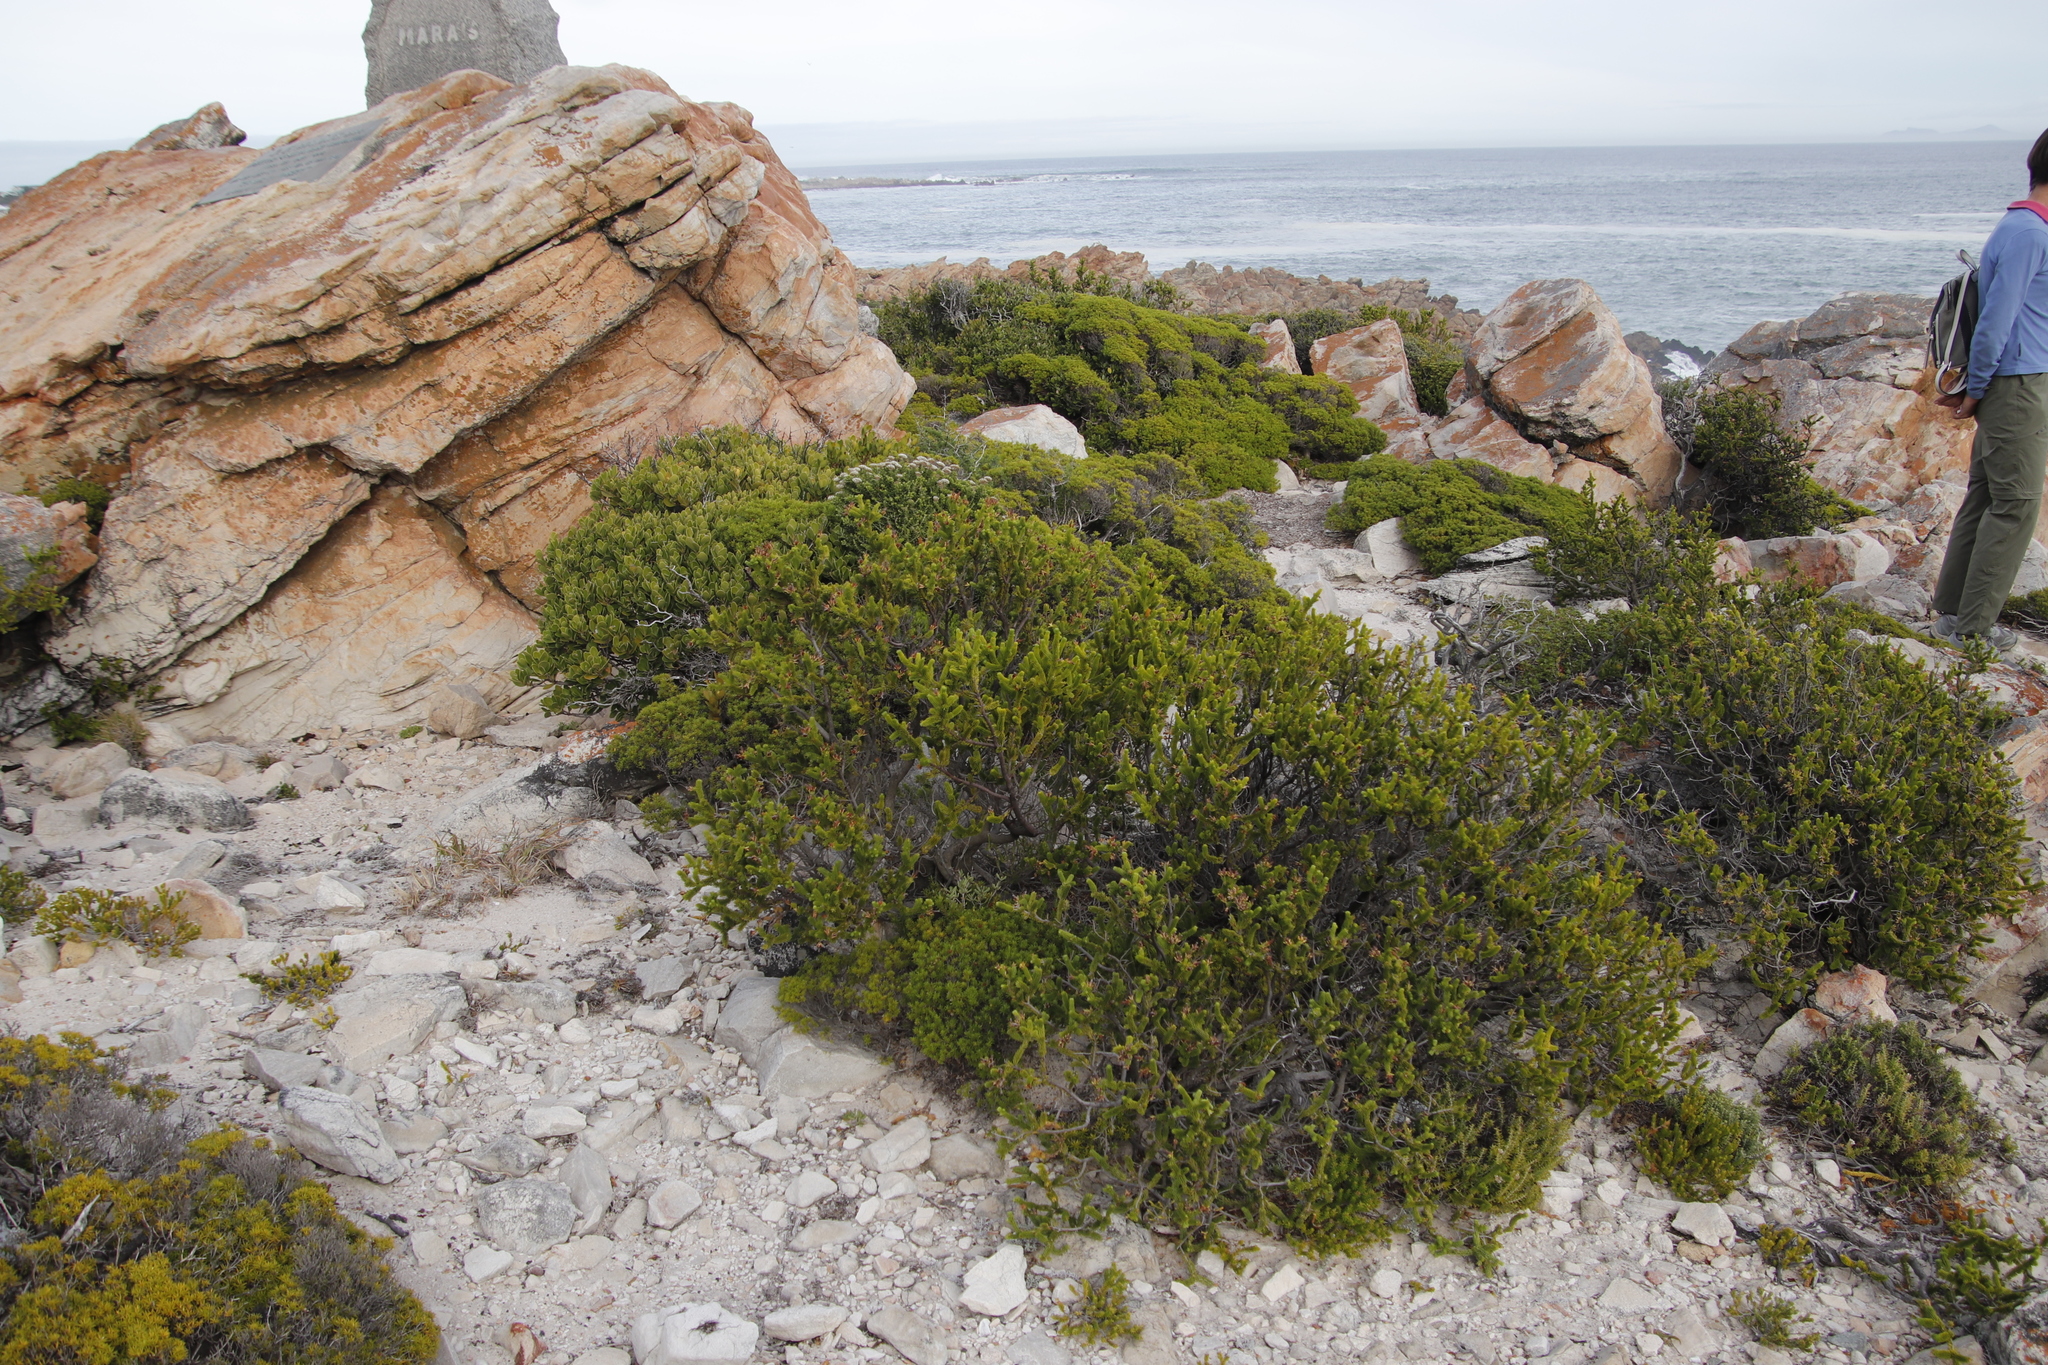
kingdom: Plantae
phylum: Tracheophyta
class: Magnoliopsida
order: Ericales
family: Ericaceae
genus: Erica
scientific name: Erica brachialis
